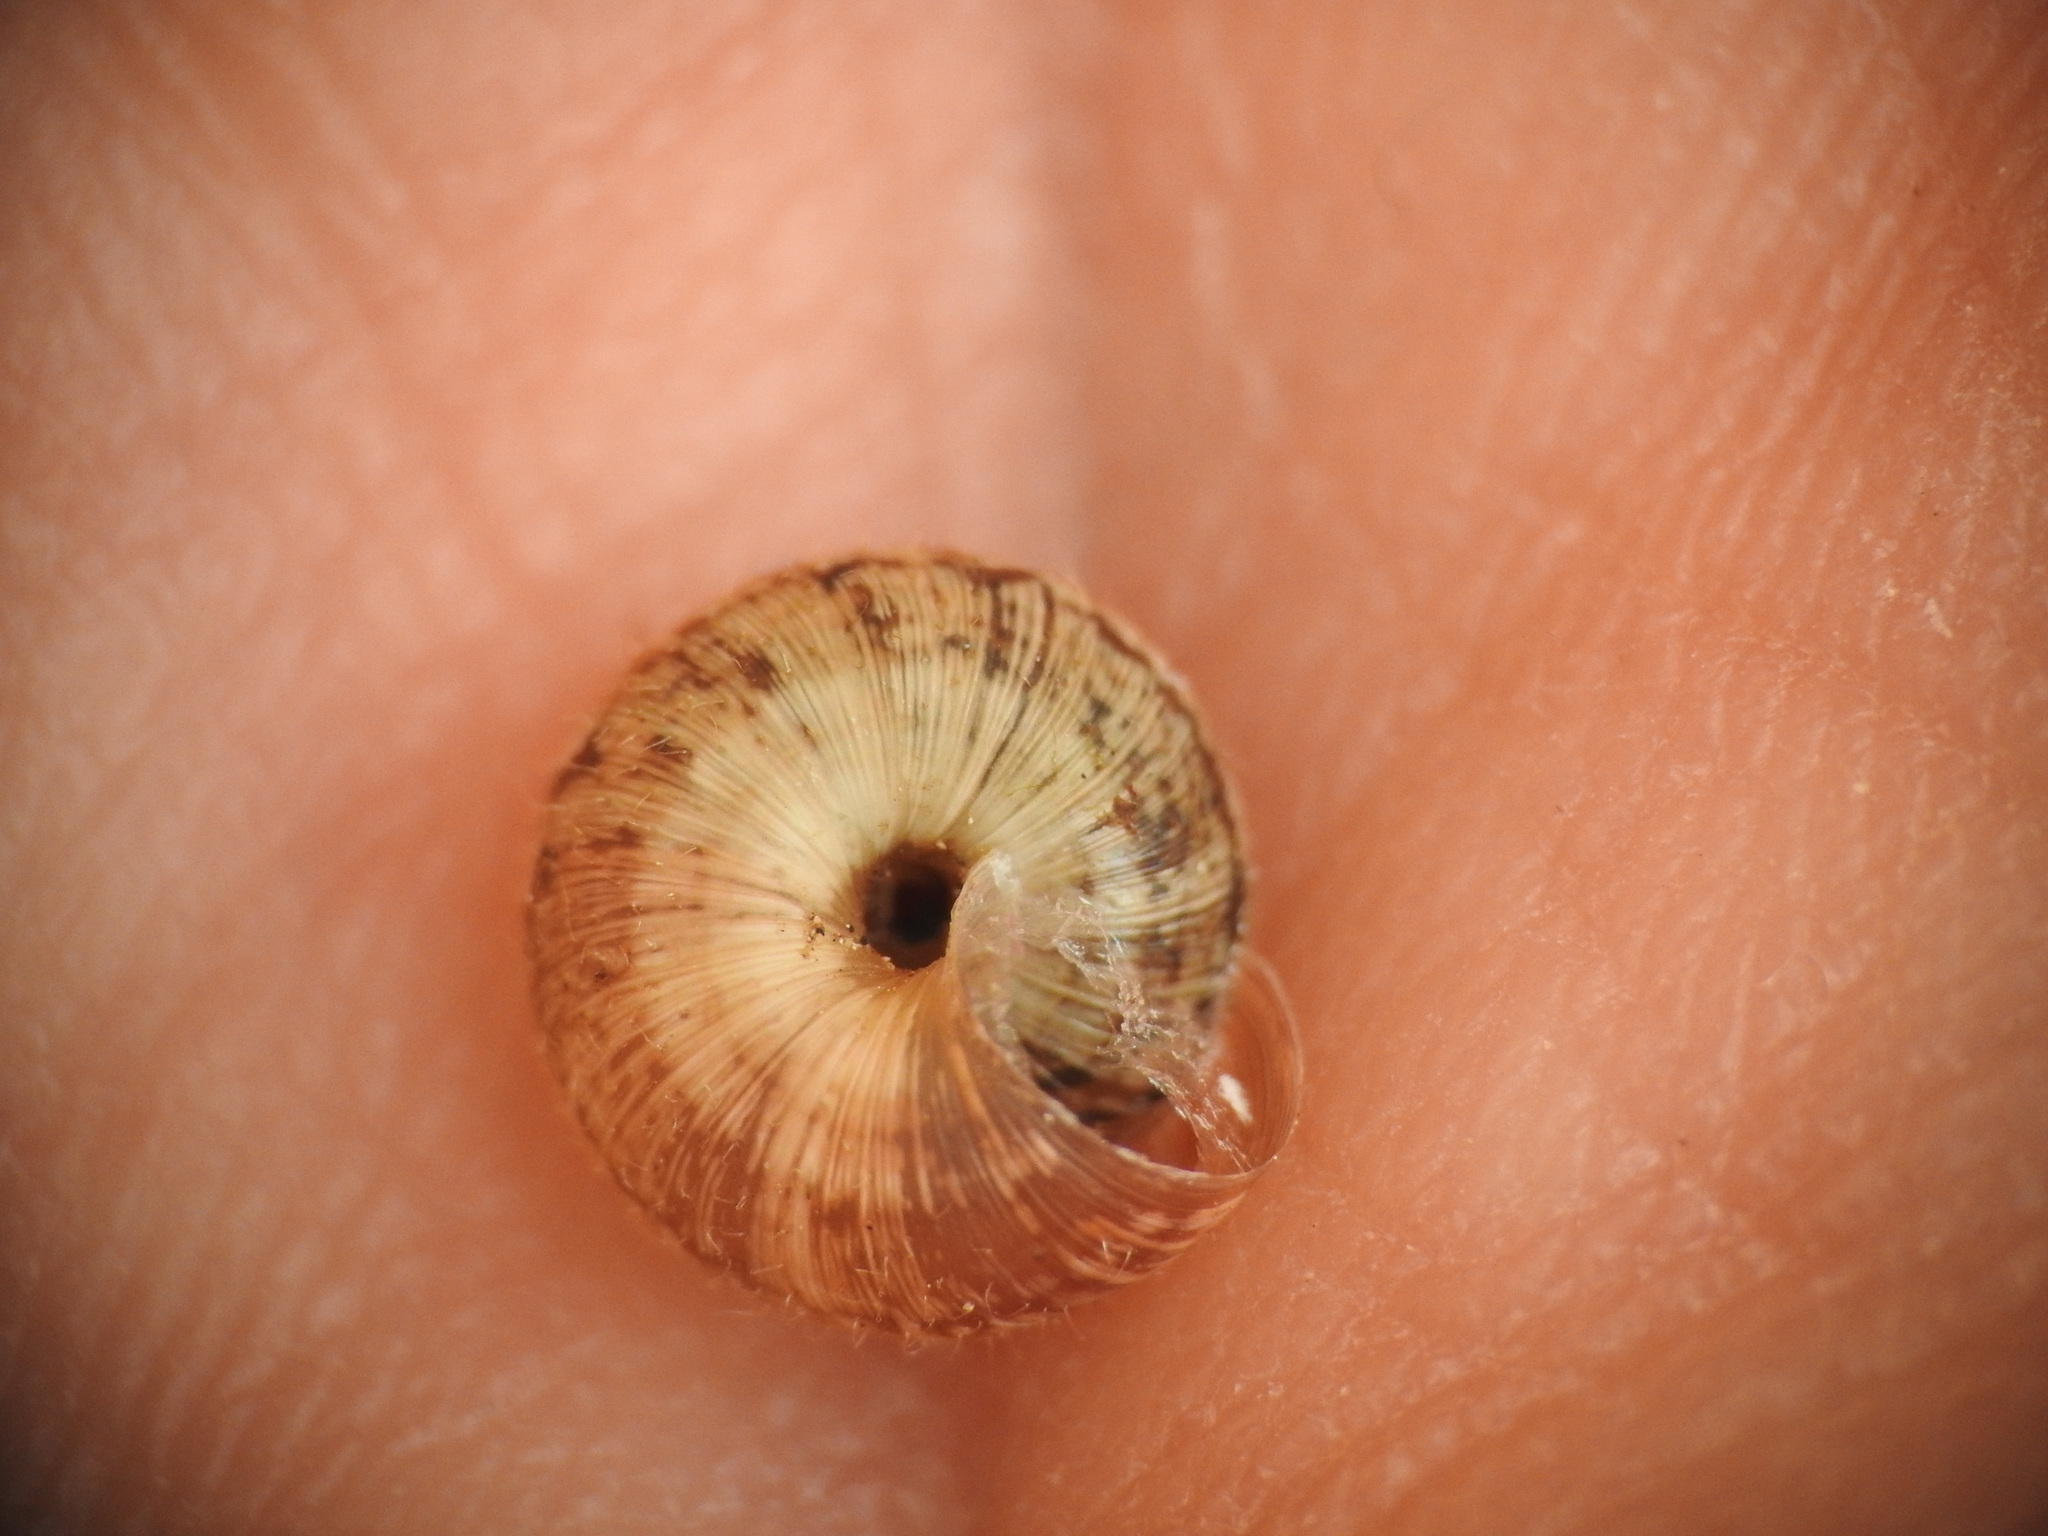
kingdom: Animalia
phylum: Mollusca
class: Gastropoda
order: Stylommatophora
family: Geomitridae
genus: Xerotricha
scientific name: Xerotricha conspurcata
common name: Snail
